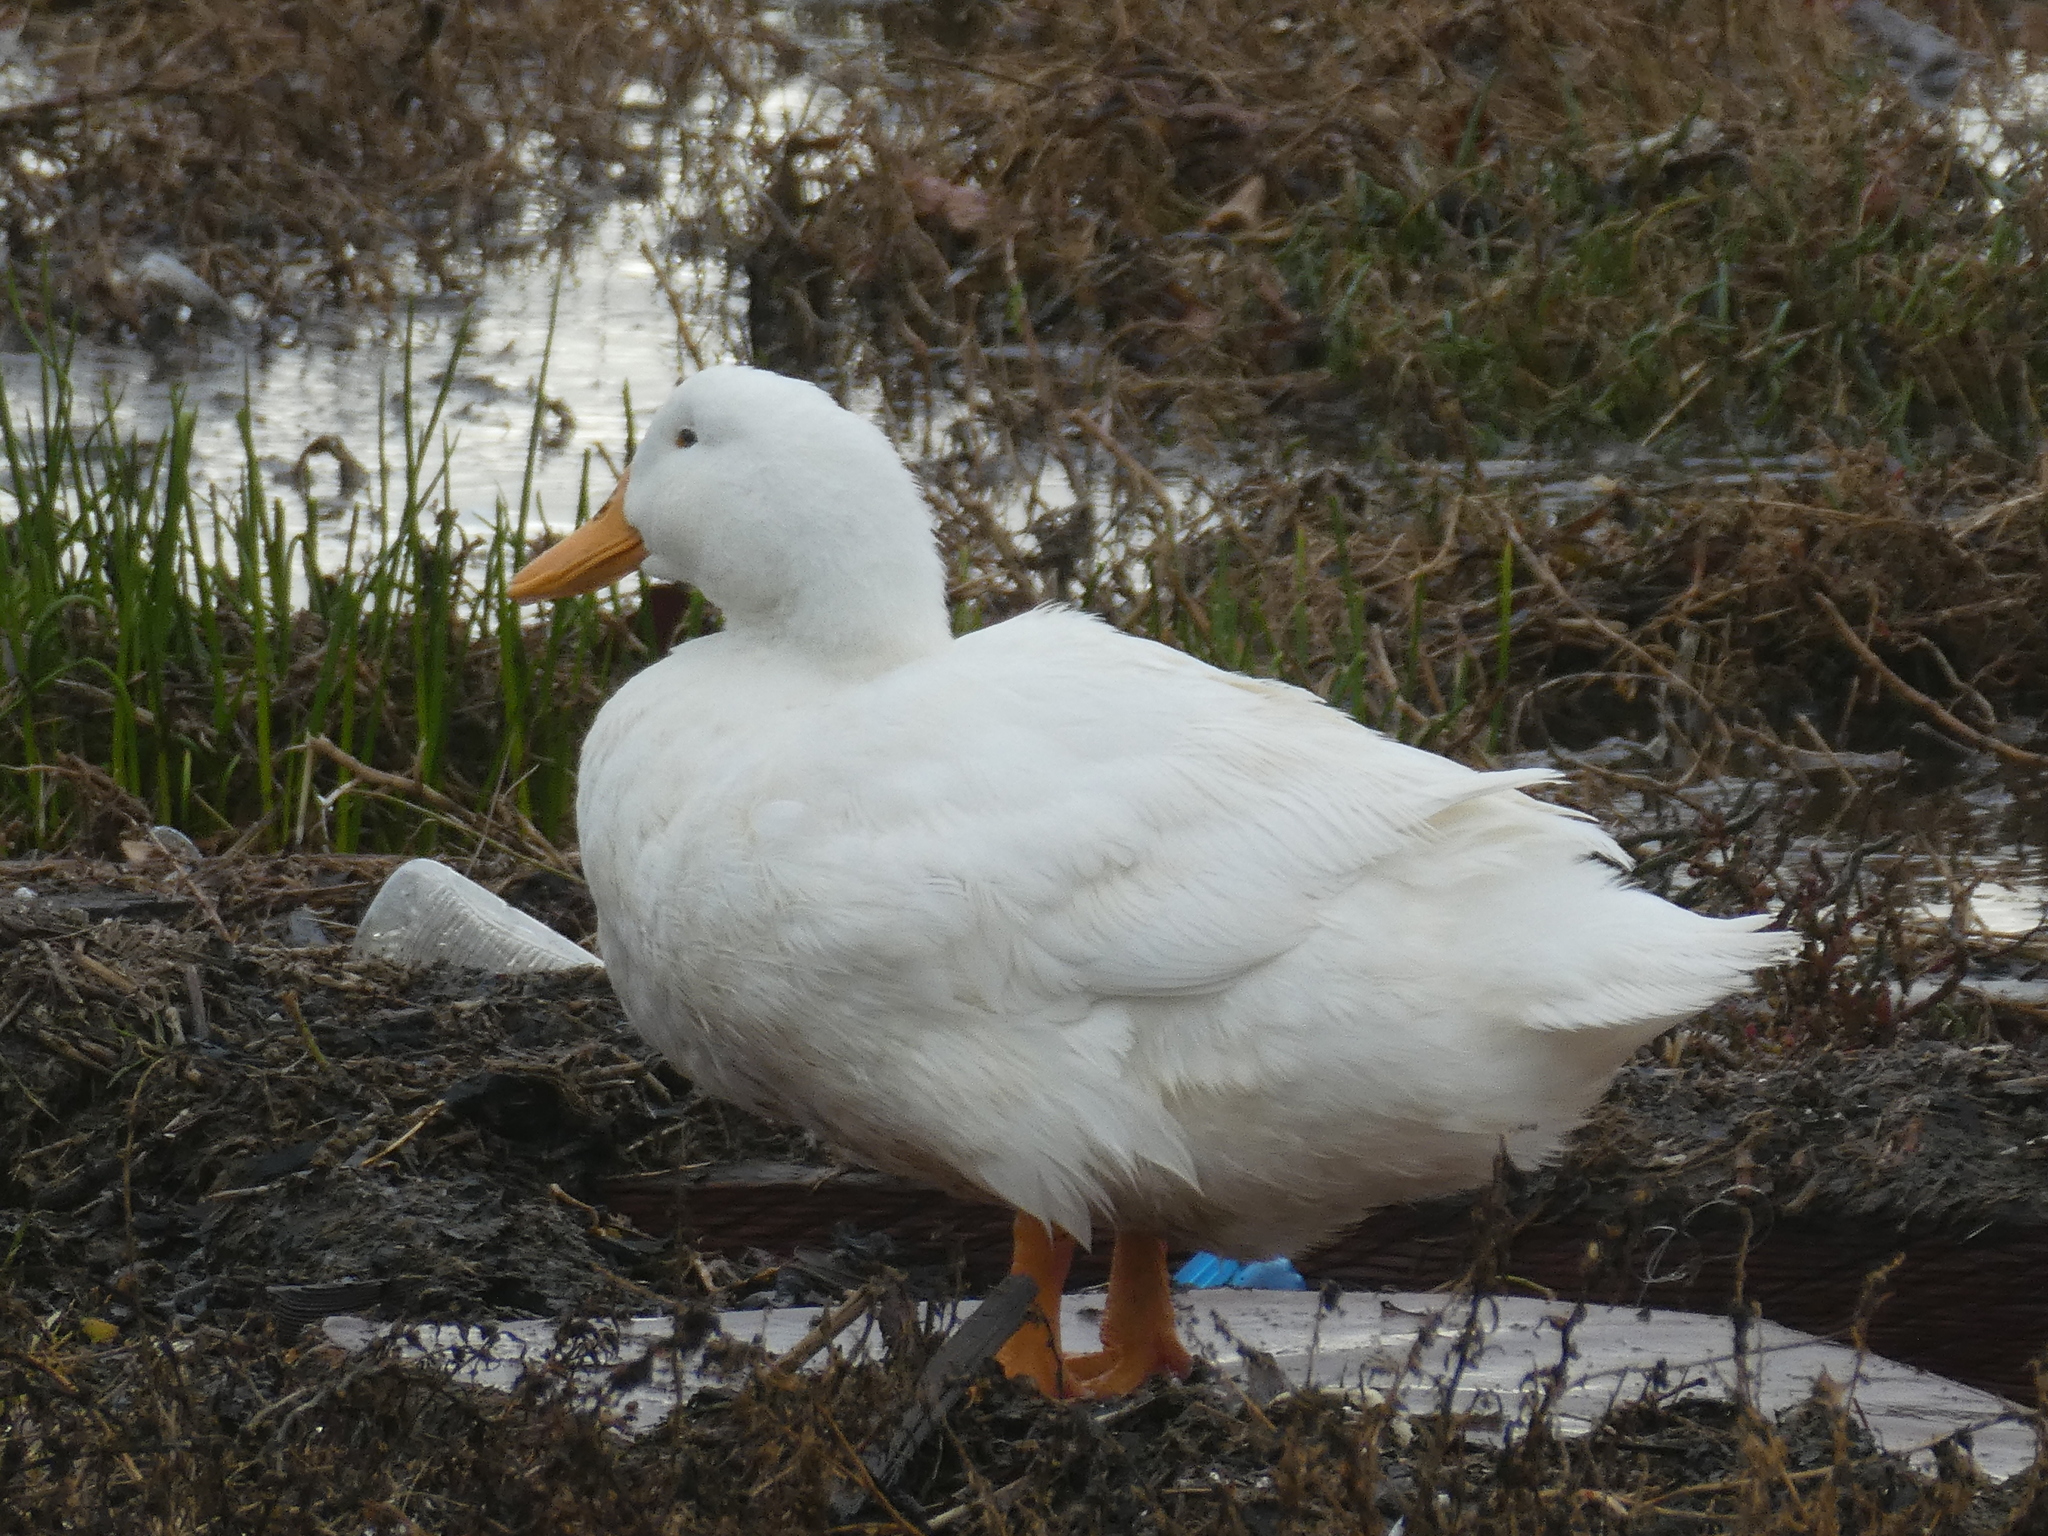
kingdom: Animalia
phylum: Chordata
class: Aves
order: Anseriformes
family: Anatidae
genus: Anas
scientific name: Anas platyrhynchos
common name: Mallard
